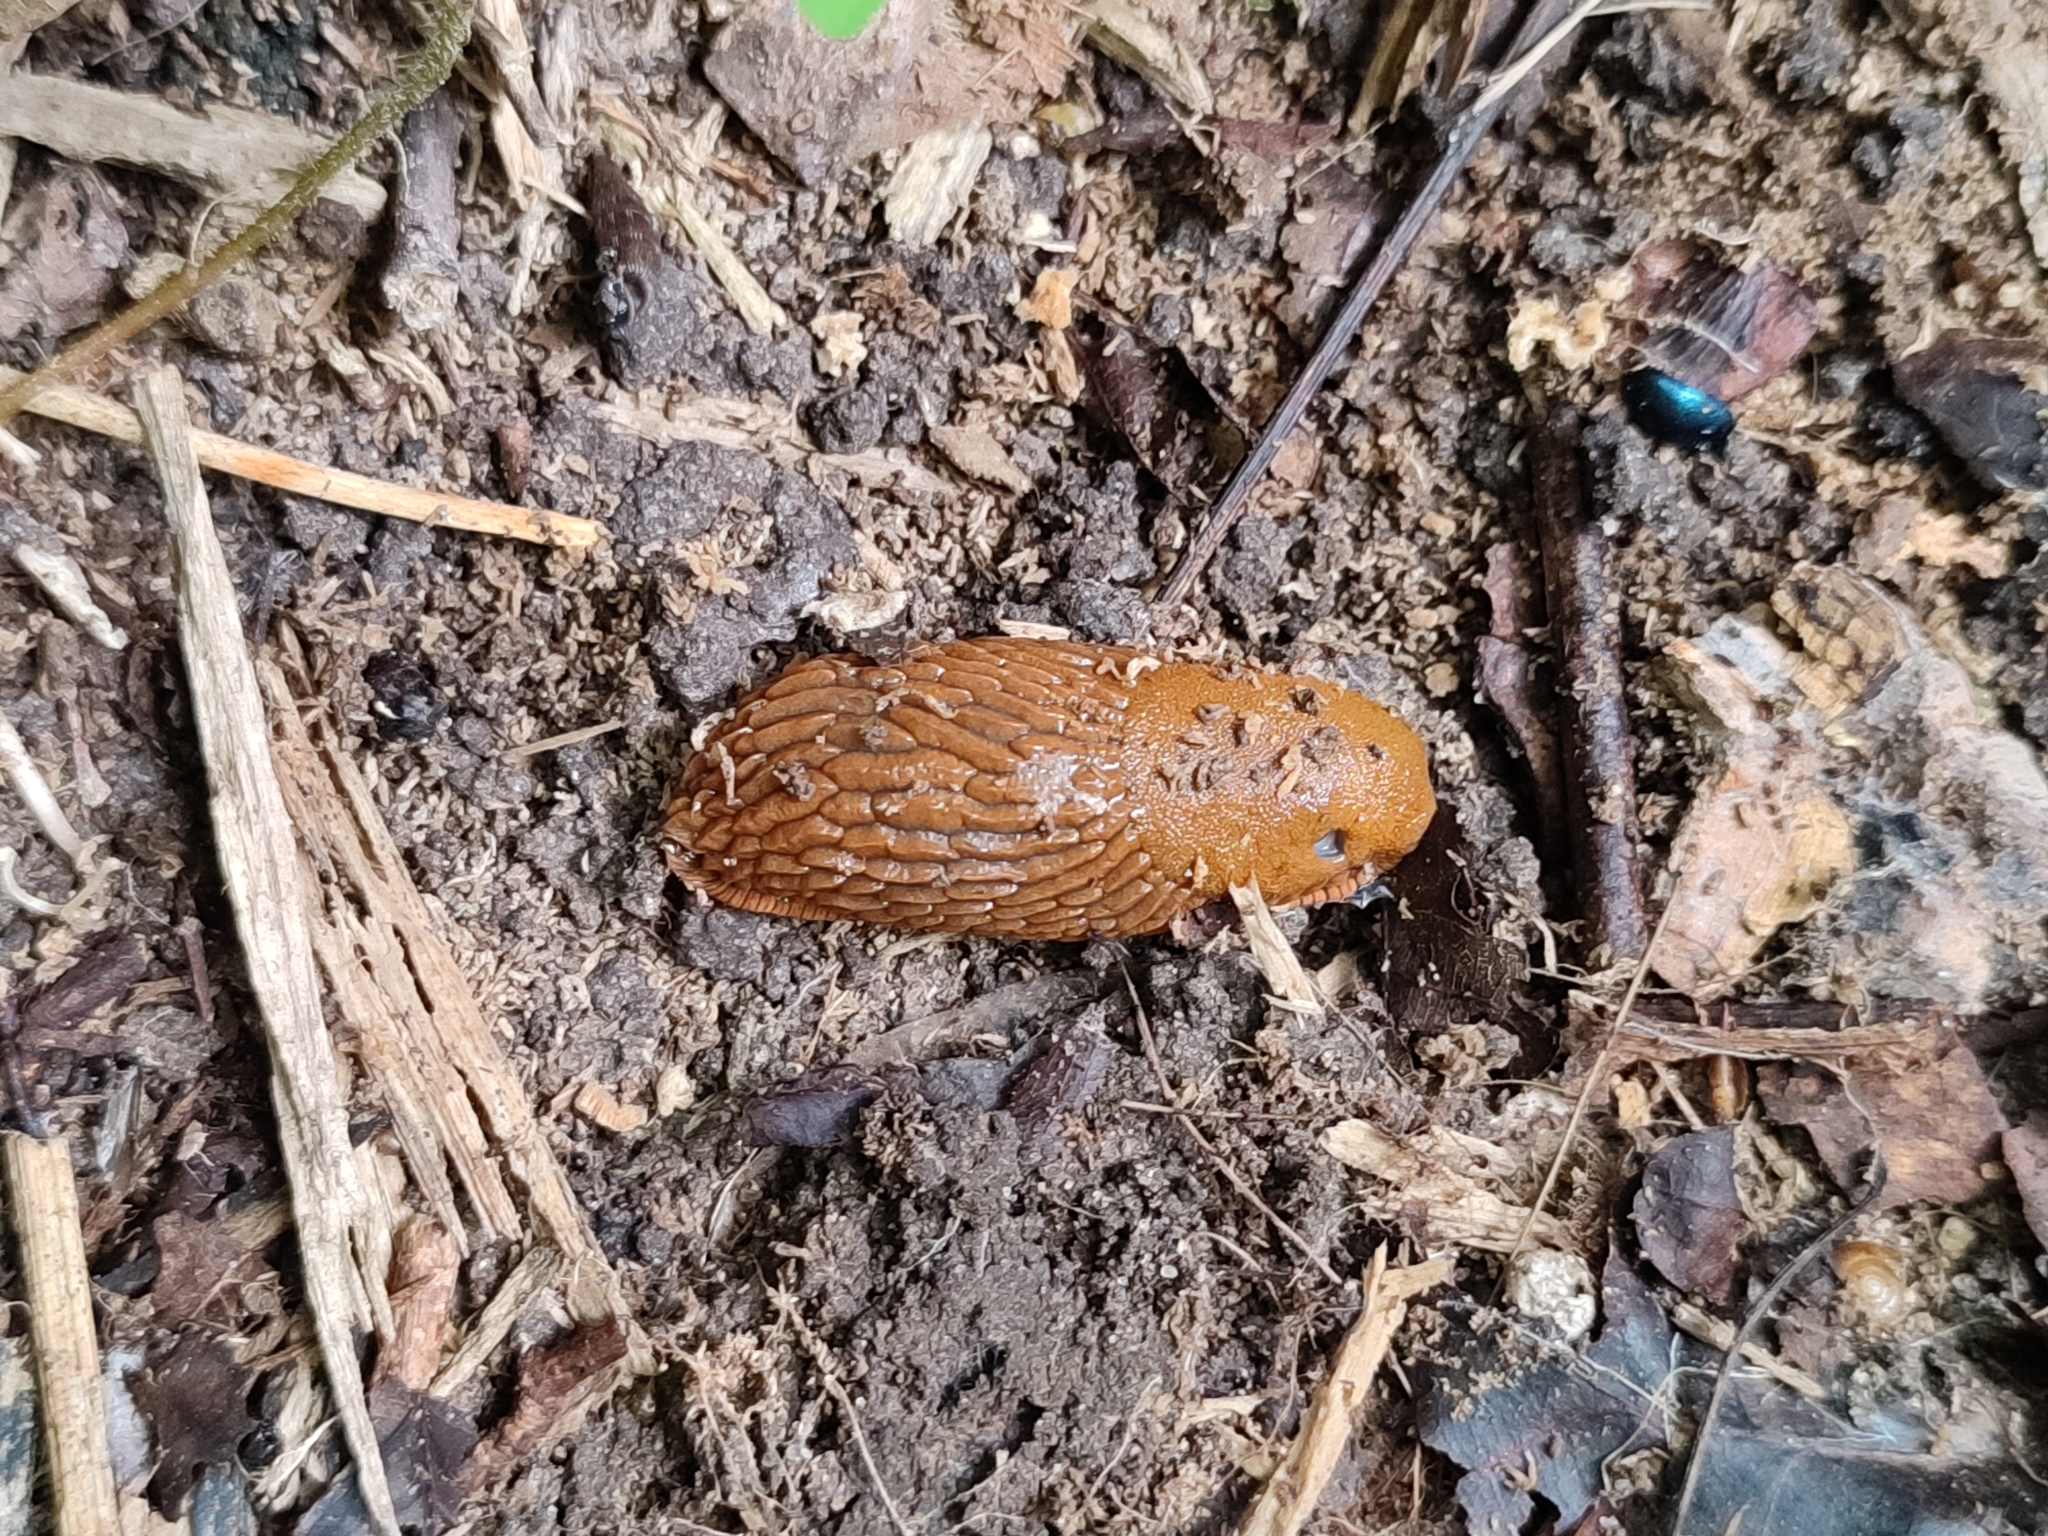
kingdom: Animalia
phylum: Mollusca
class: Gastropoda
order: Stylommatophora
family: Arionidae
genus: Arion
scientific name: Arion vulgaris
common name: Lusitanian slug
